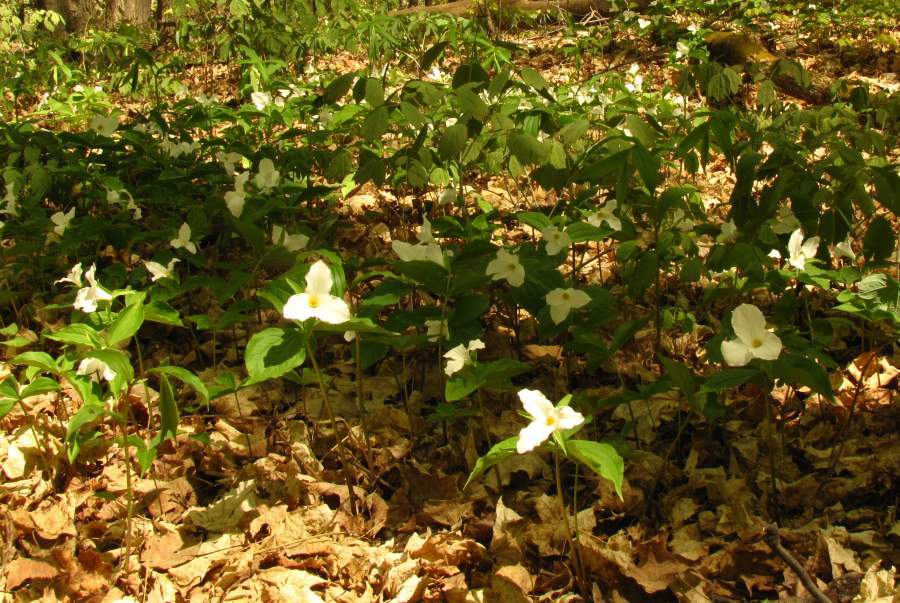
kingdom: Plantae
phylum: Tracheophyta
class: Liliopsida
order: Liliales
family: Melanthiaceae
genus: Trillium
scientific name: Trillium grandiflorum
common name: Great white trillium
